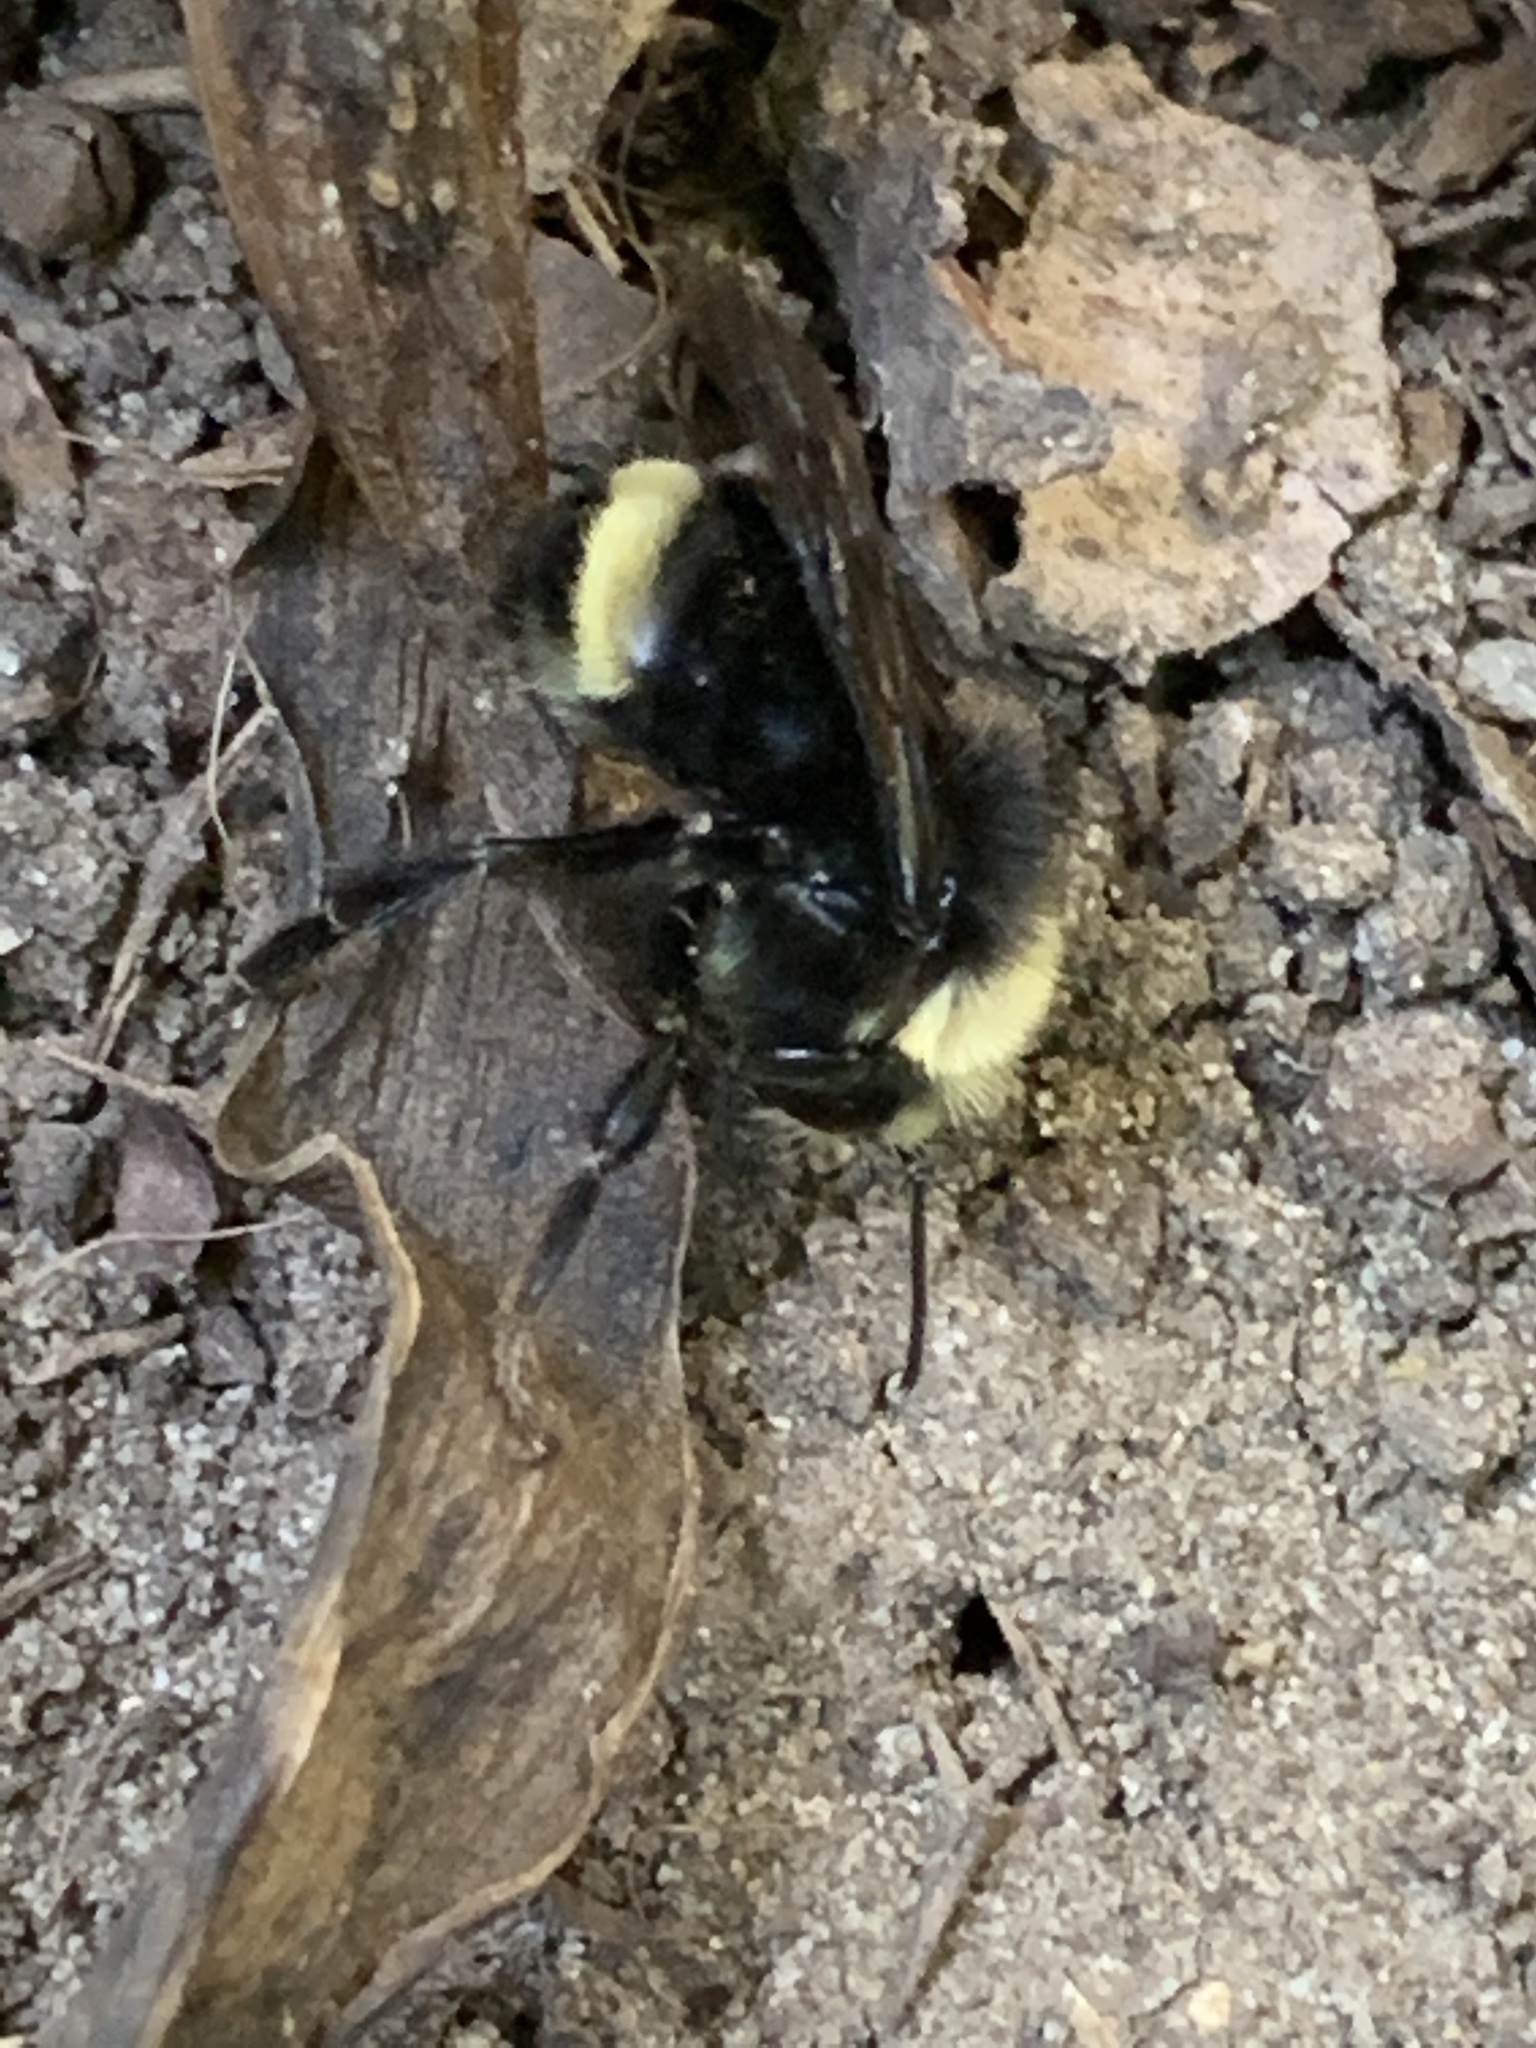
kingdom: Animalia
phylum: Arthropoda
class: Insecta
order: Hymenoptera
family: Apidae
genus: Bombus
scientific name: Bombus vosnesenskii
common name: Vosnesensky bumble bee
